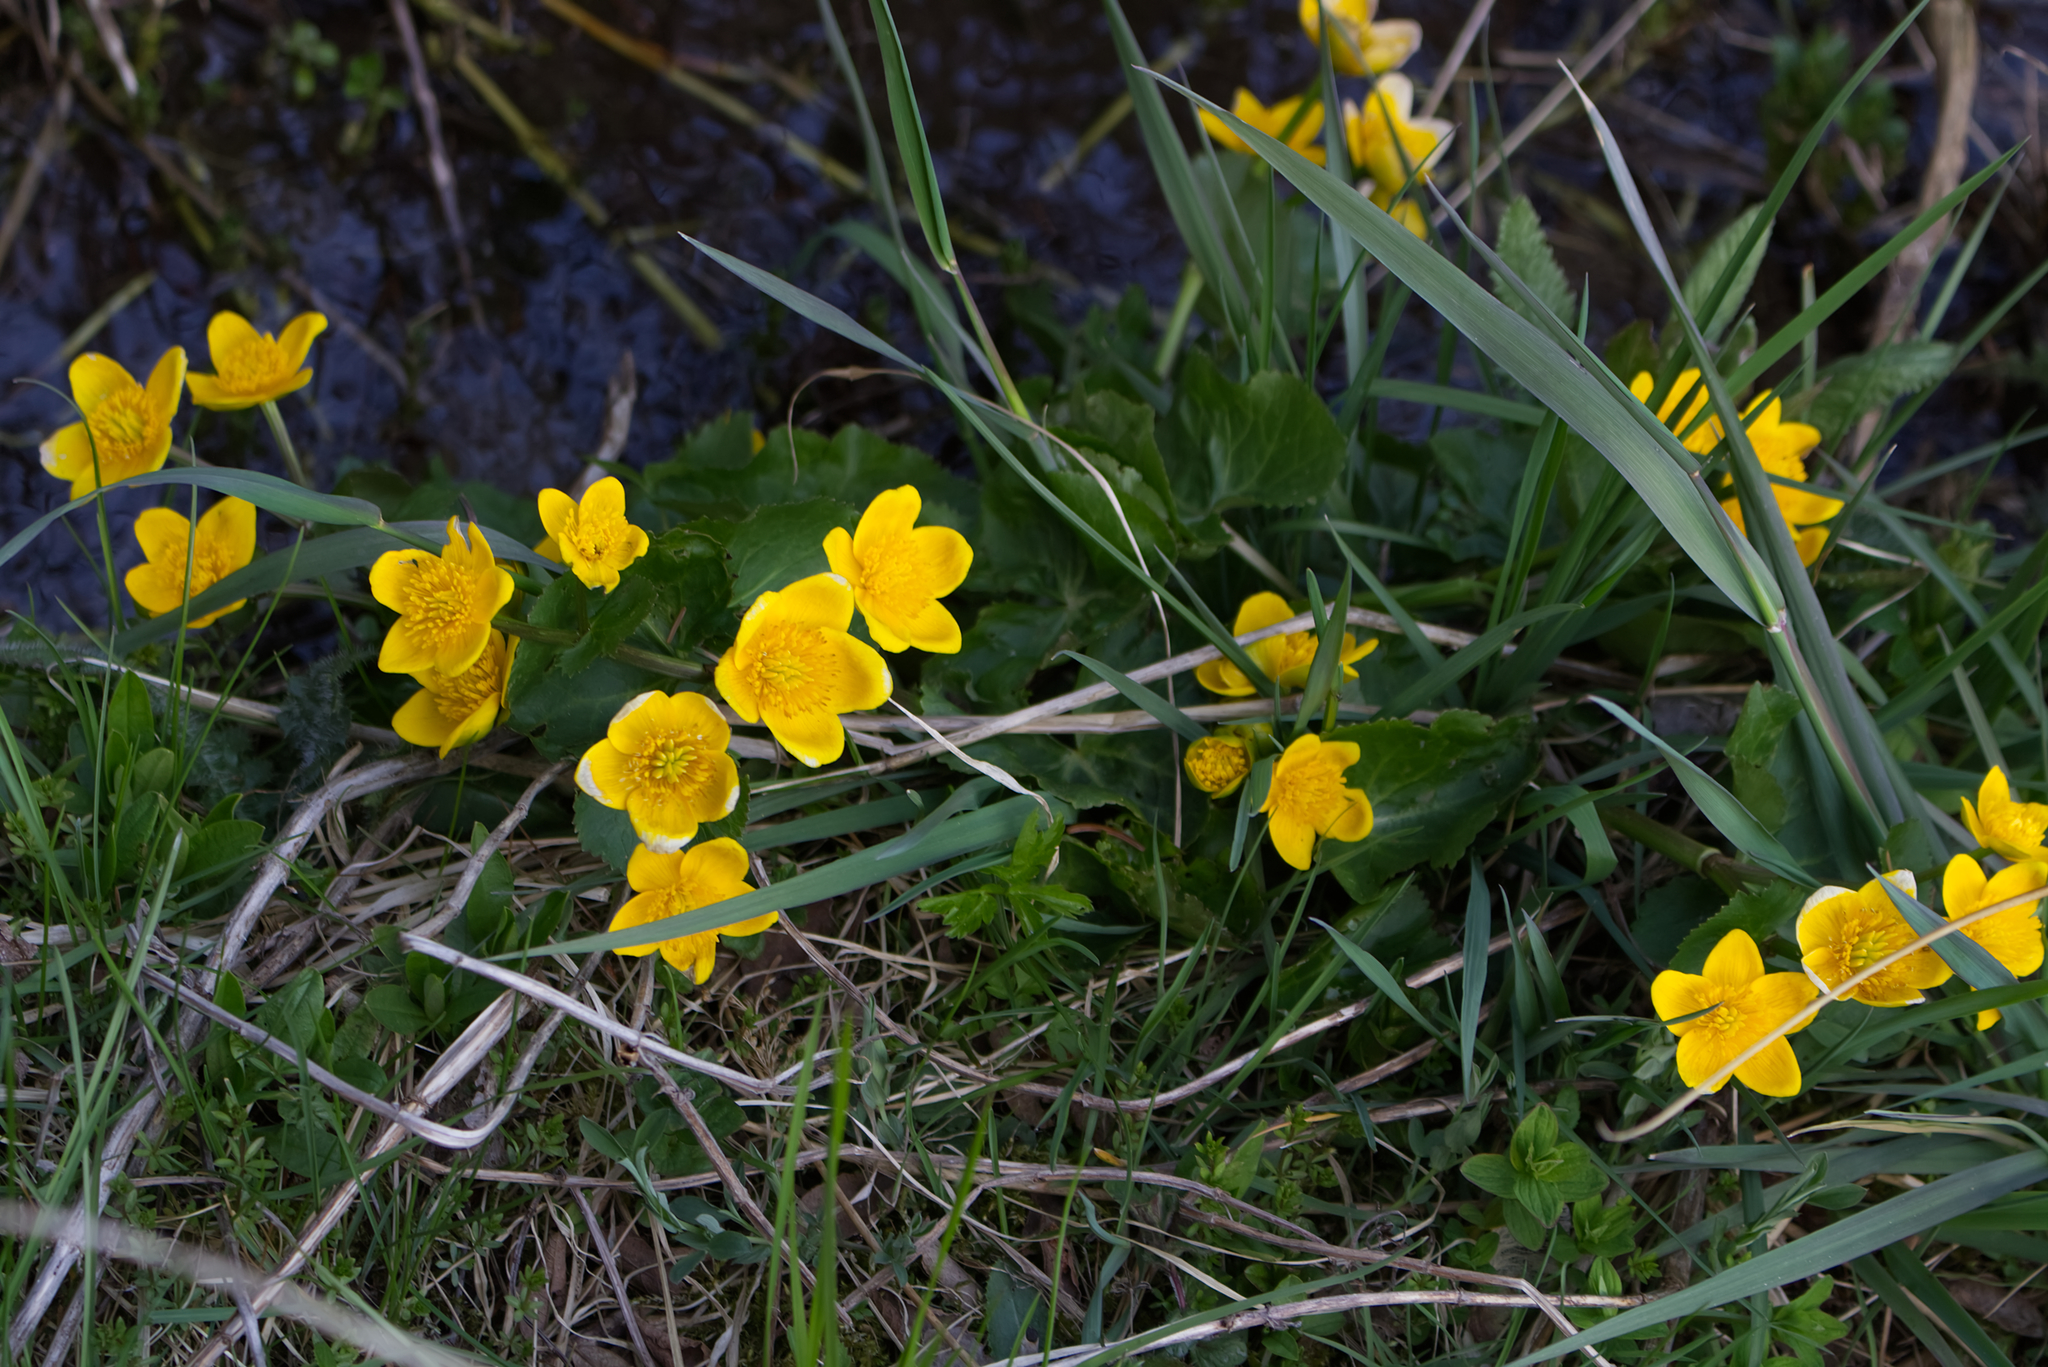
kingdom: Plantae
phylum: Tracheophyta
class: Magnoliopsida
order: Ranunculales
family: Ranunculaceae
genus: Caltha
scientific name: Caltha palustris
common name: Marsh marigold
